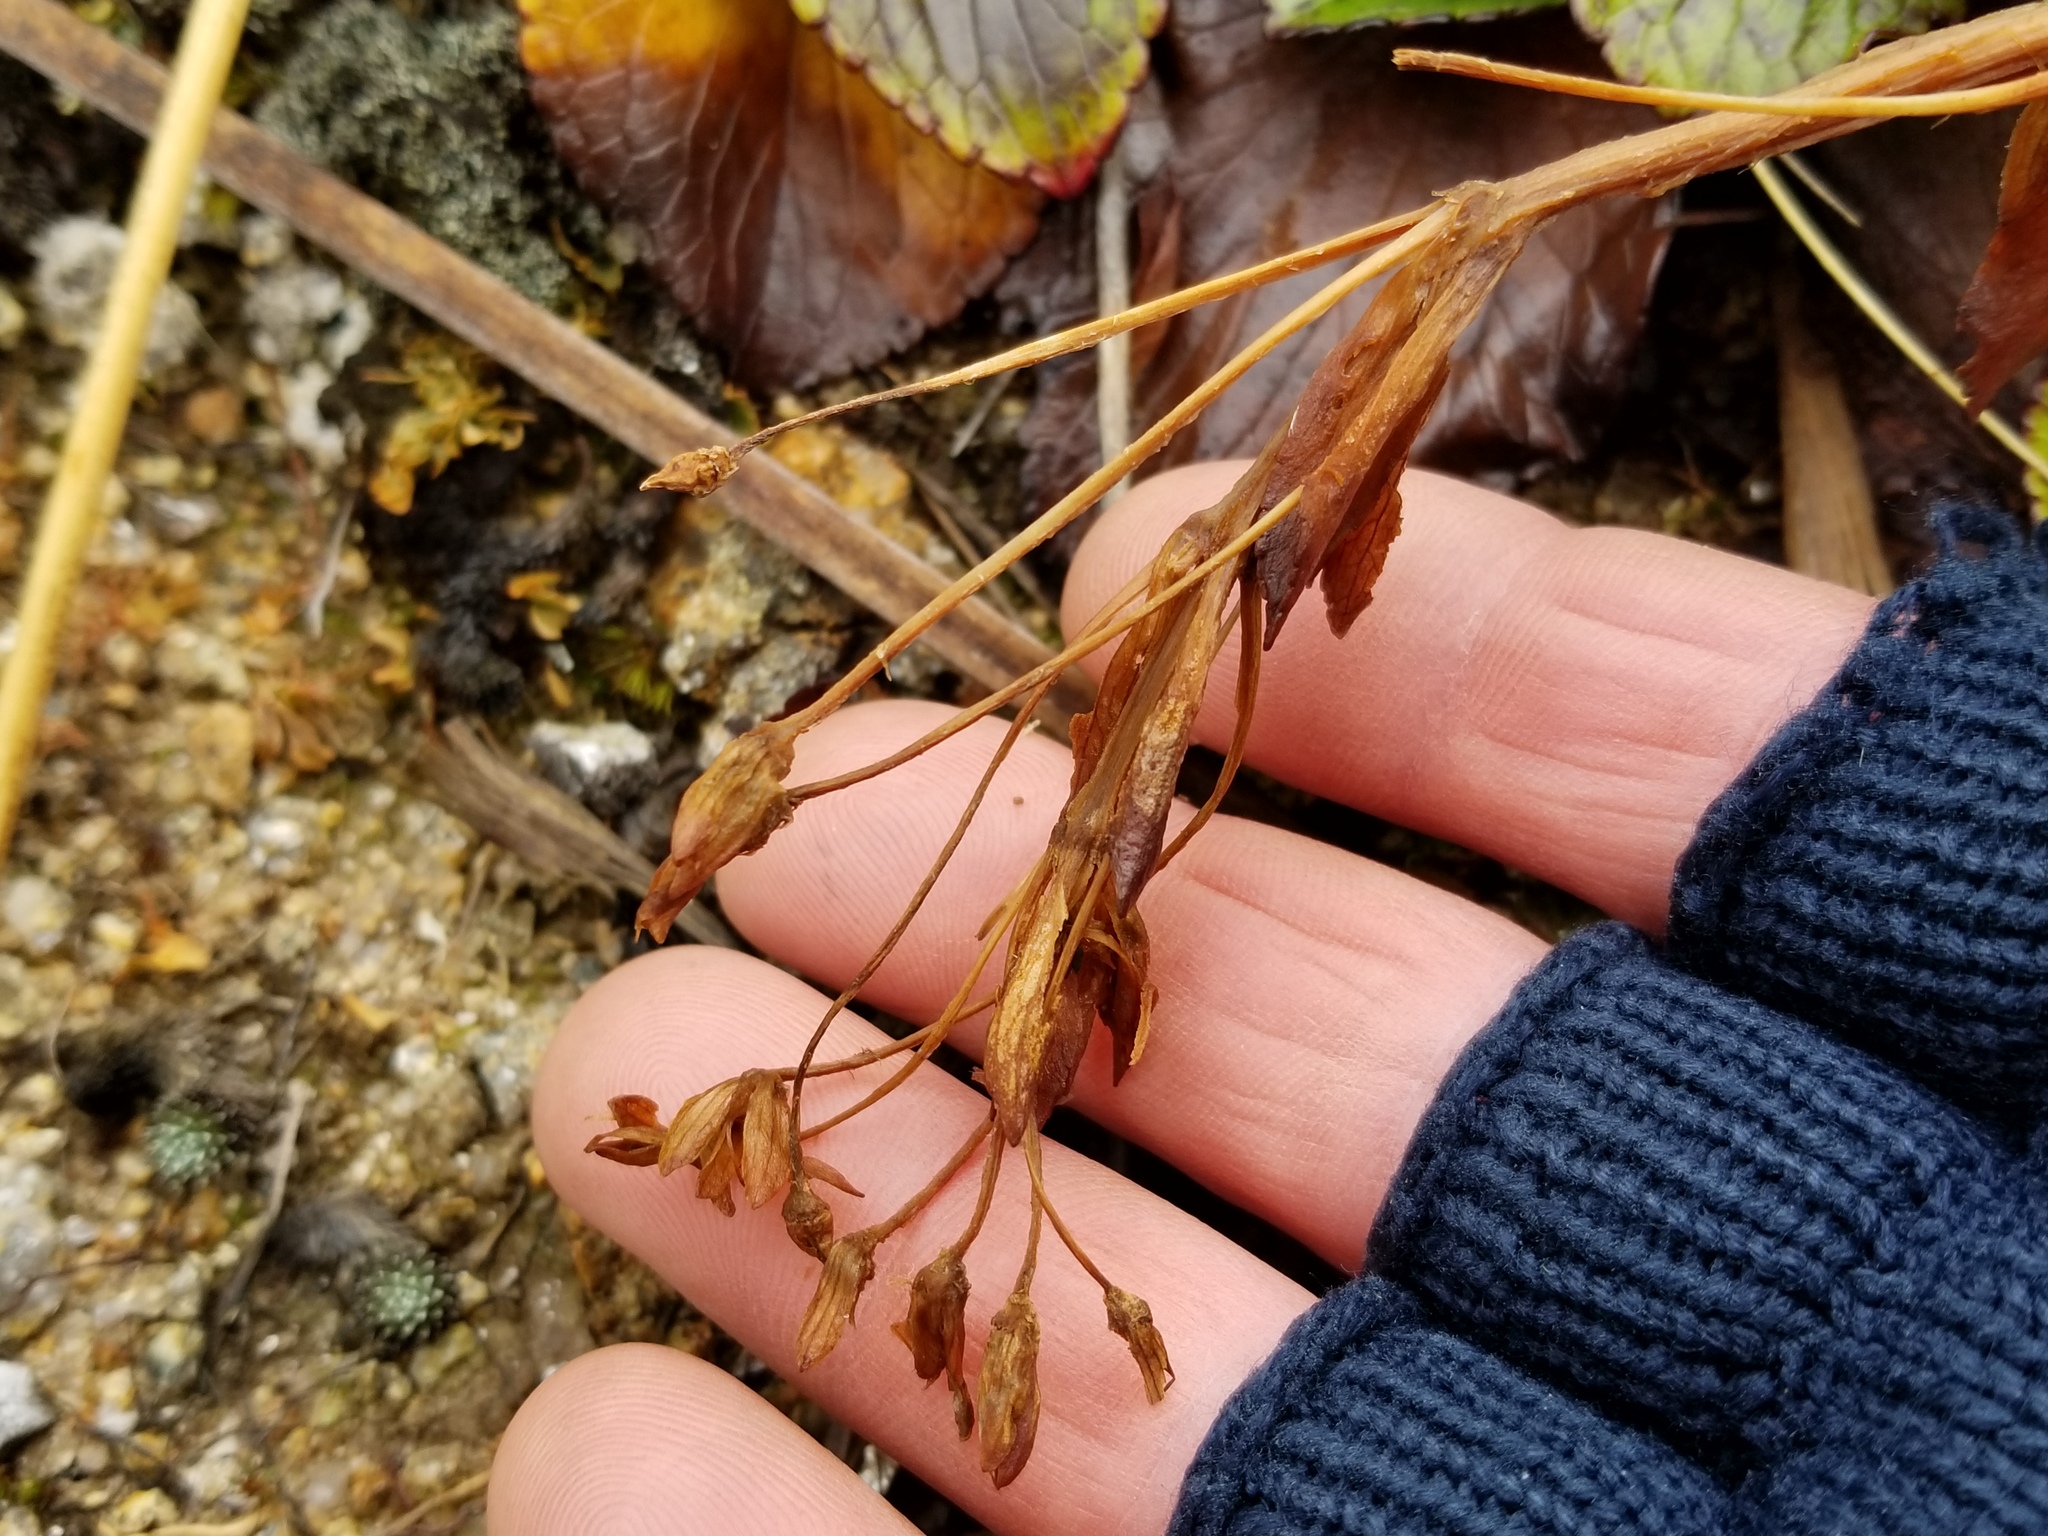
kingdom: Plantae
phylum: Tracheophyta
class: Magnoliopsida
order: Lamiales
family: Plantaginaceae
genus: Ourisia
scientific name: Ourisia calycina
